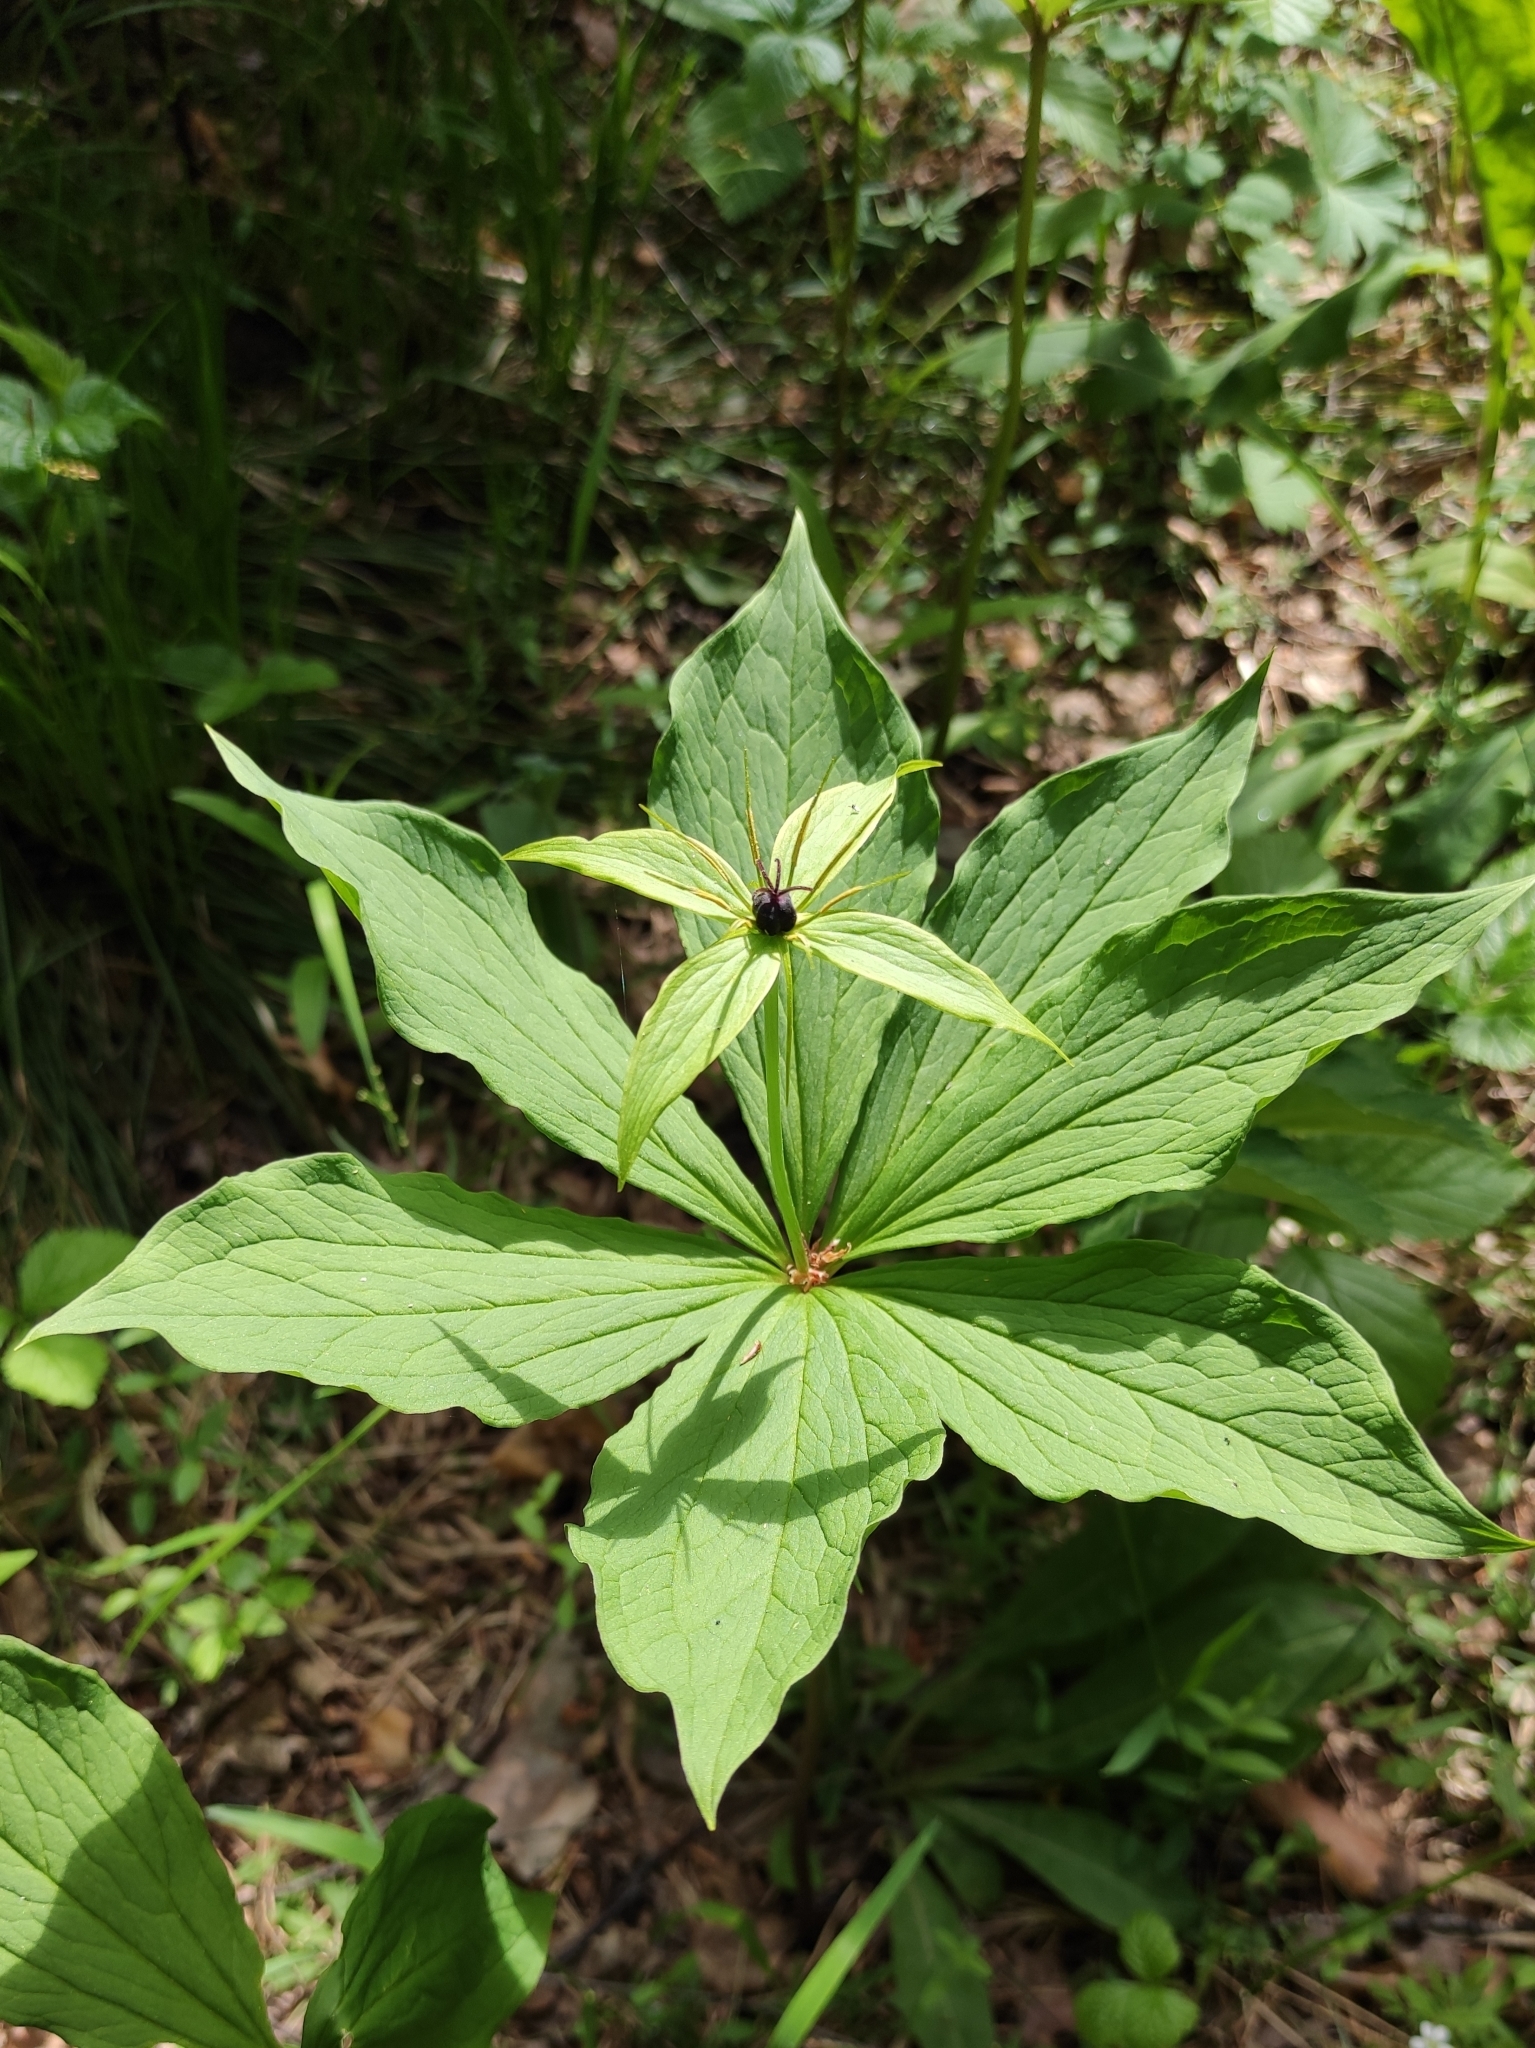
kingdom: Plantae
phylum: Tracheophyta
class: Liliopsida
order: Liliales
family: Melanthiaceae
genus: Paris
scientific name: Paris verticillata
